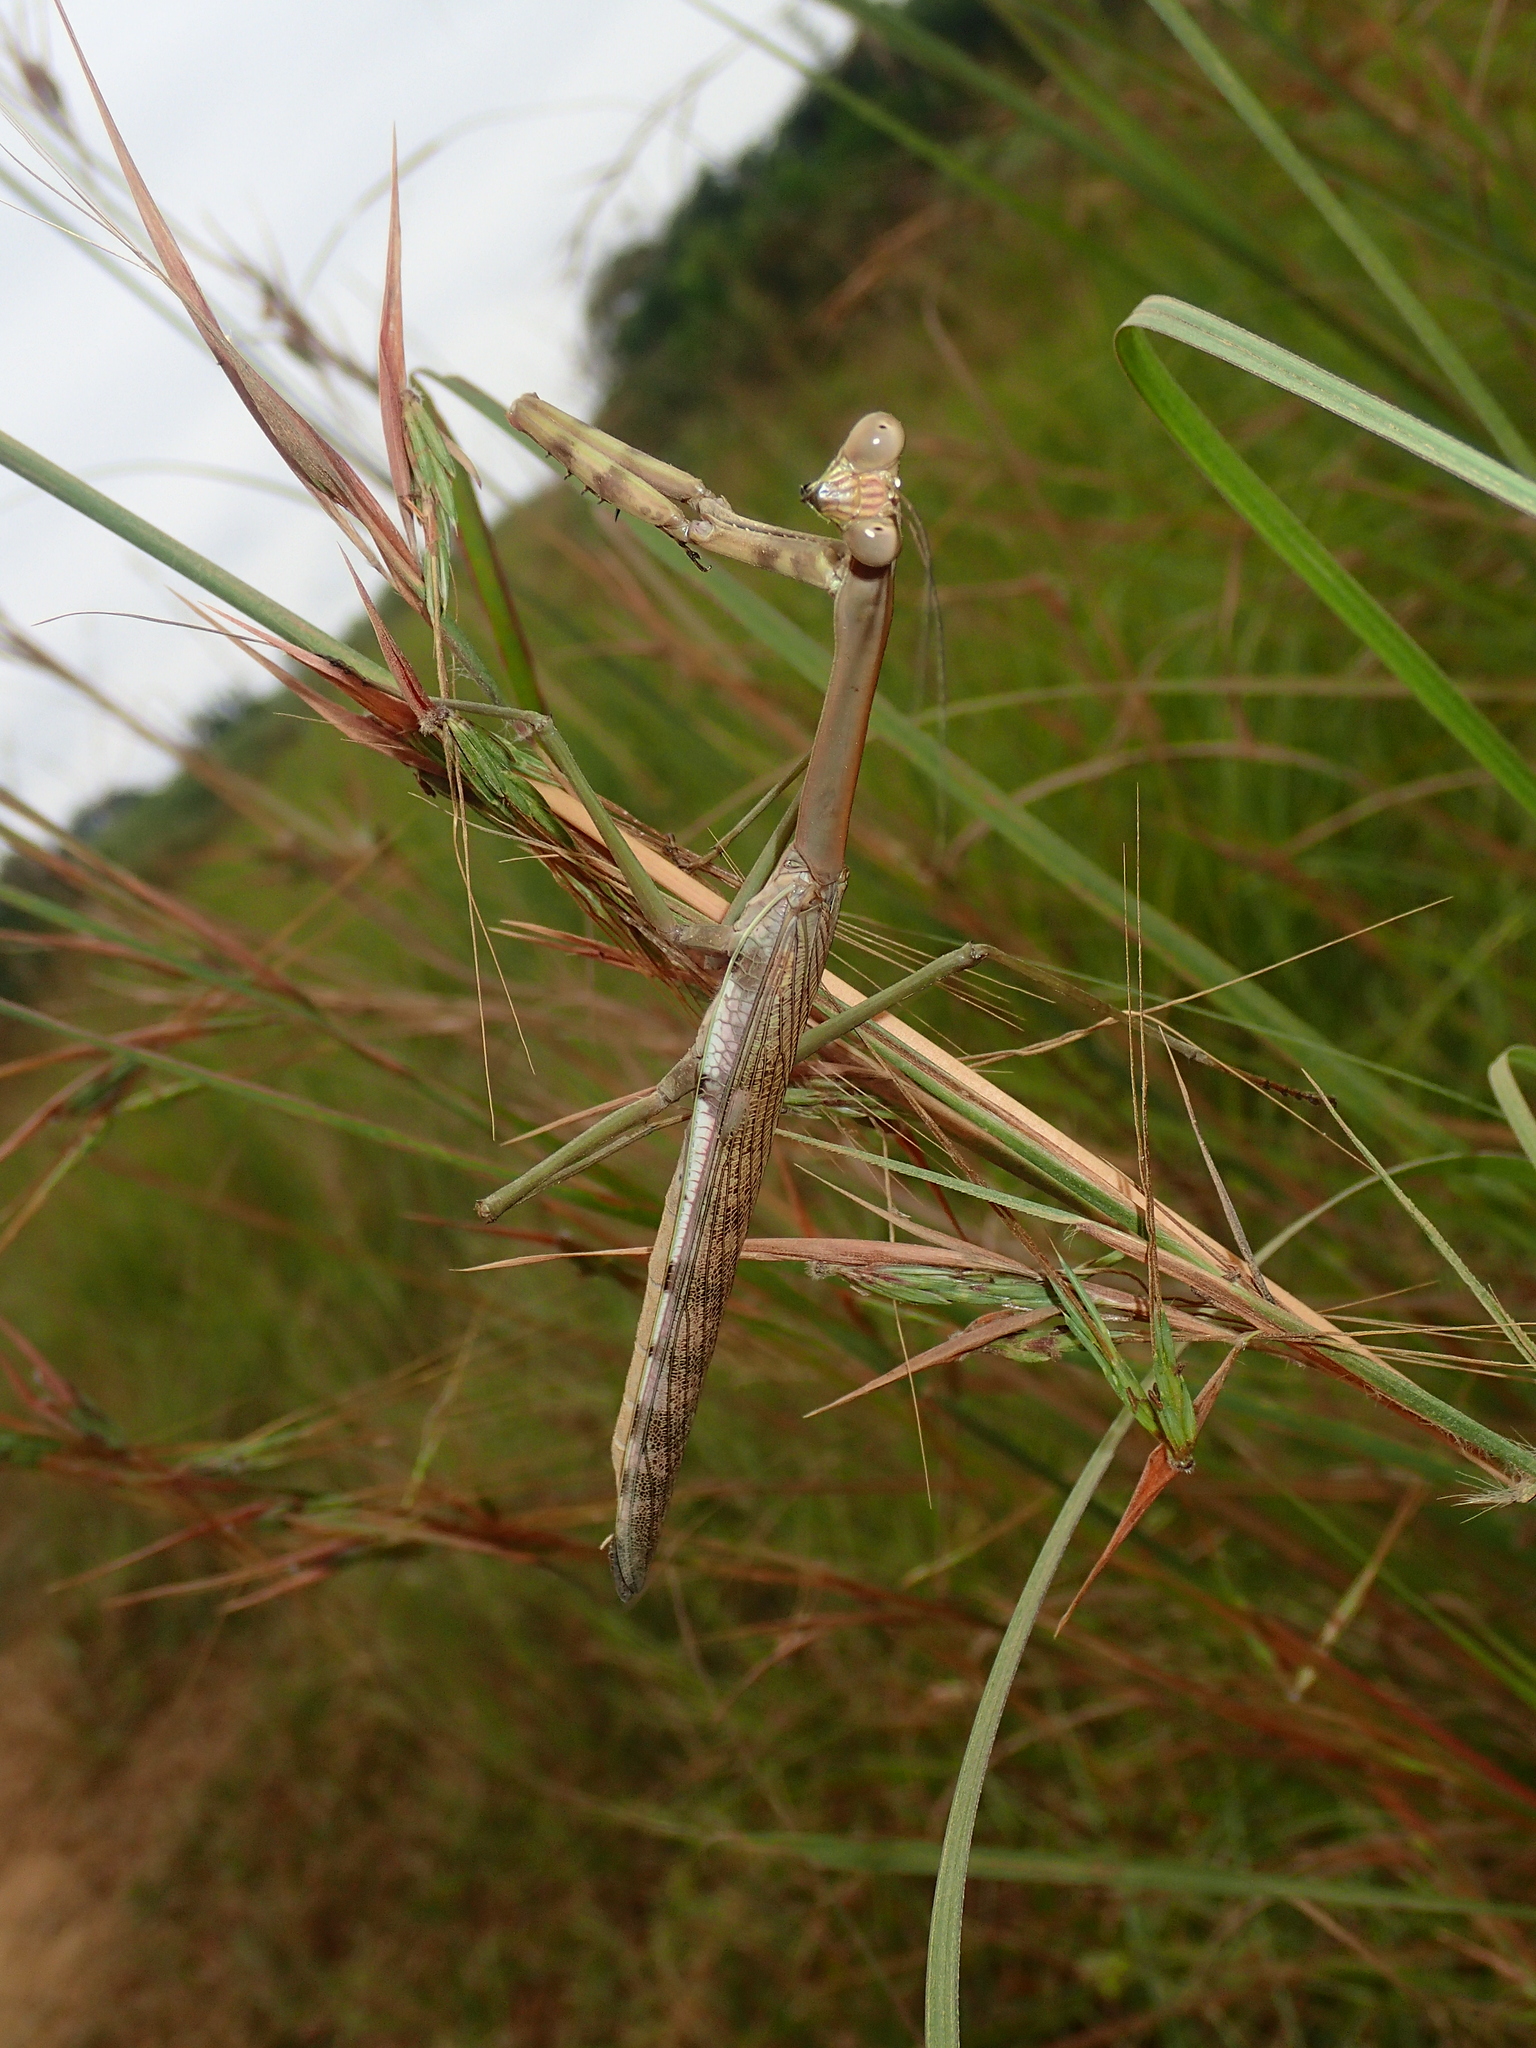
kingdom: Animalia
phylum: Arthropoda
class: Insecta
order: Mantodea
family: Mantidae
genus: Plistospilota
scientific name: Plistospilota maxima
